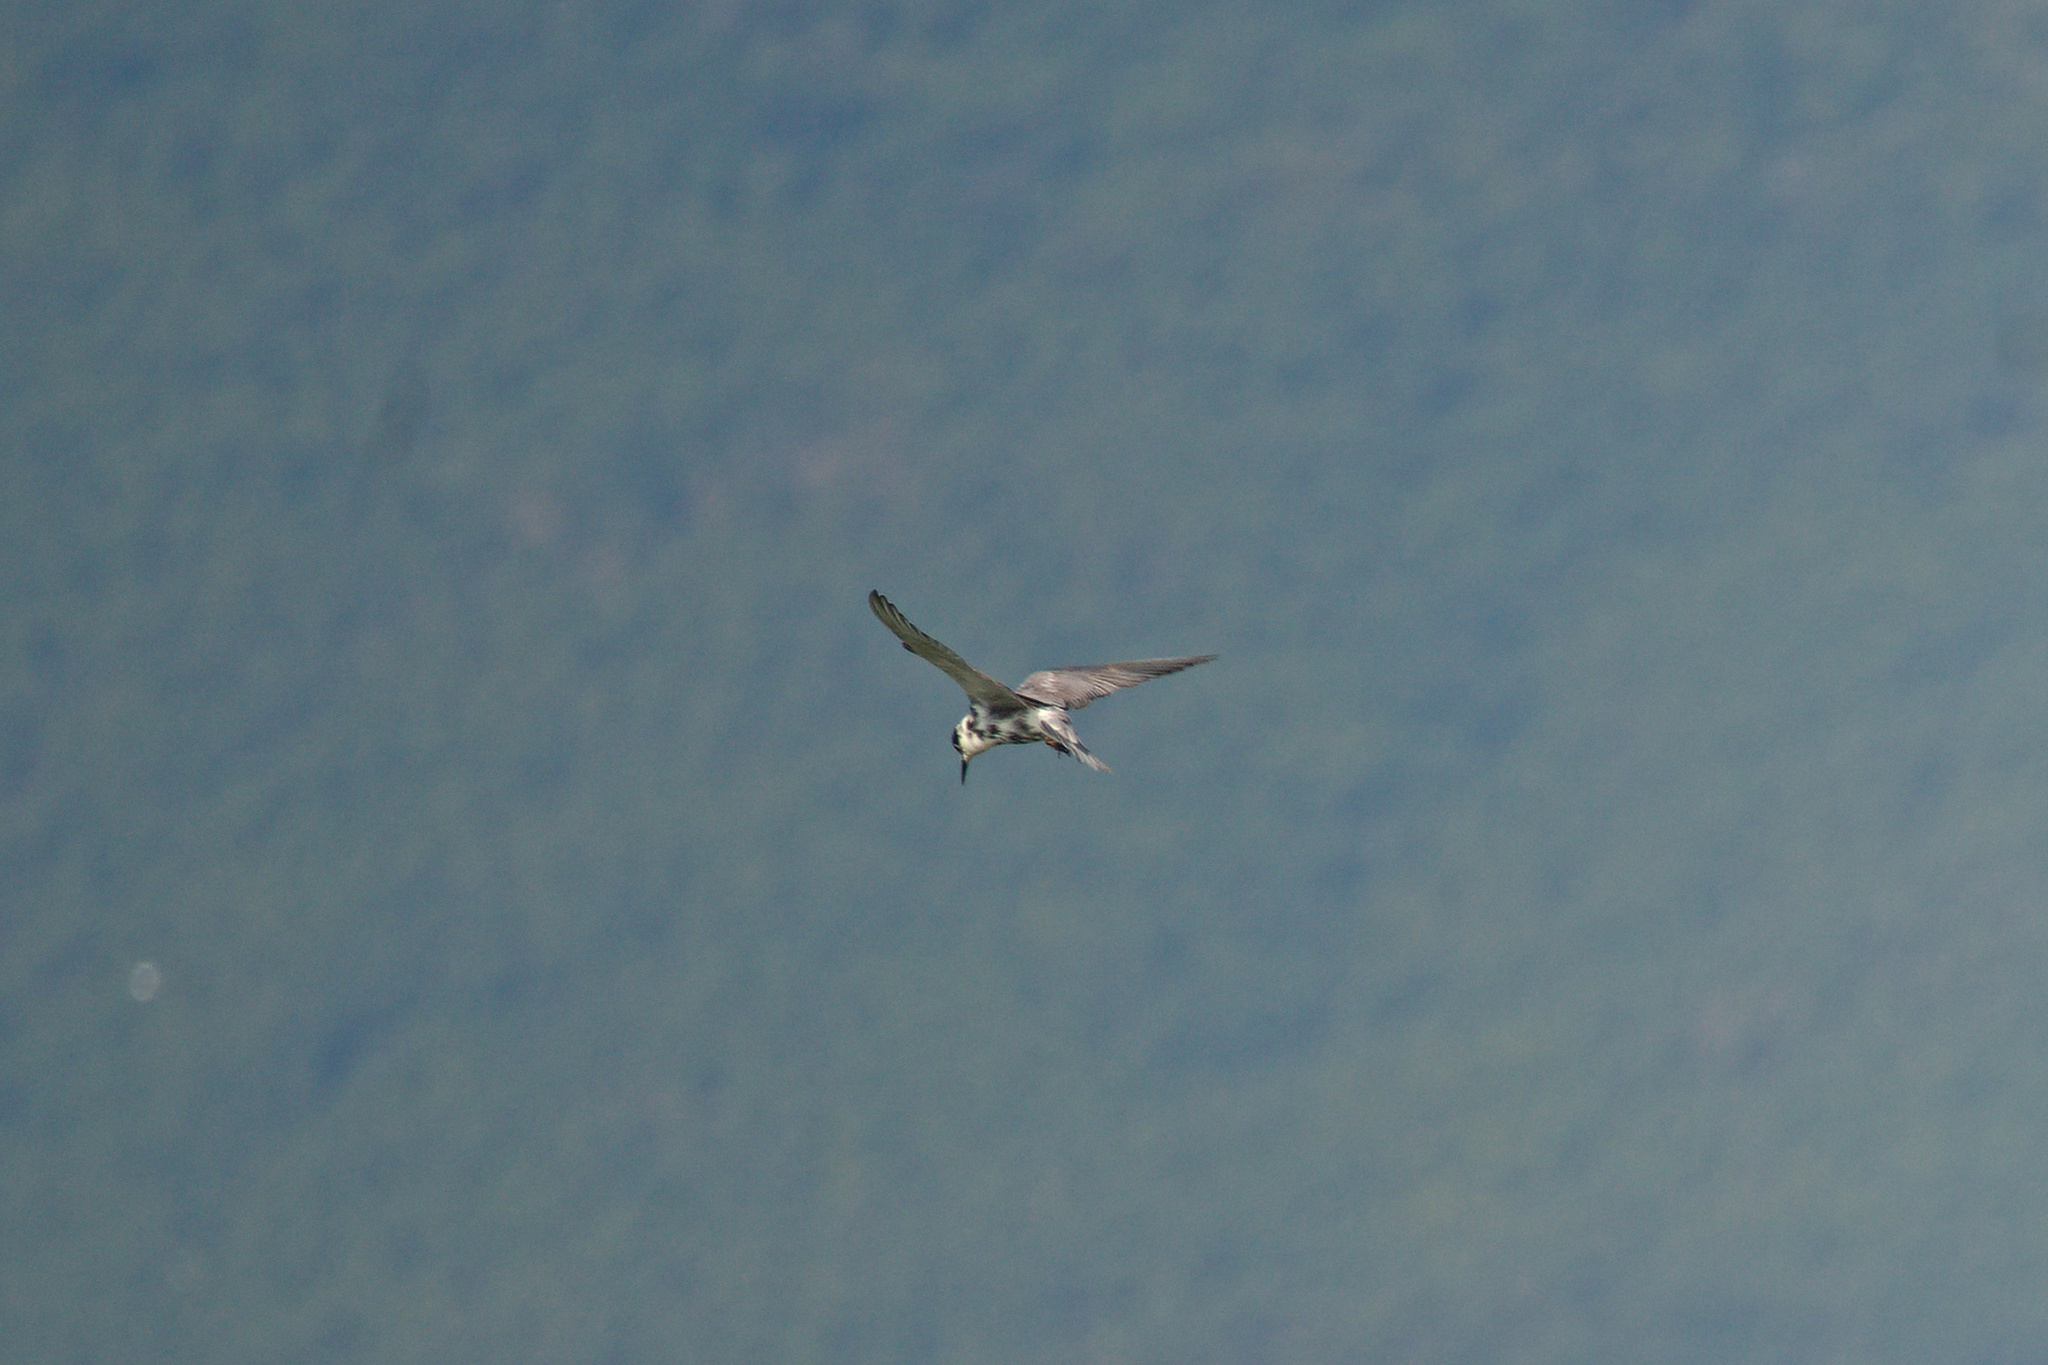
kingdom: Animalia
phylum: Chordata
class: Aves
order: Charadriiformes
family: Laridae
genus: Chlidonias
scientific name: Chlidonias niger
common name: Black tern
